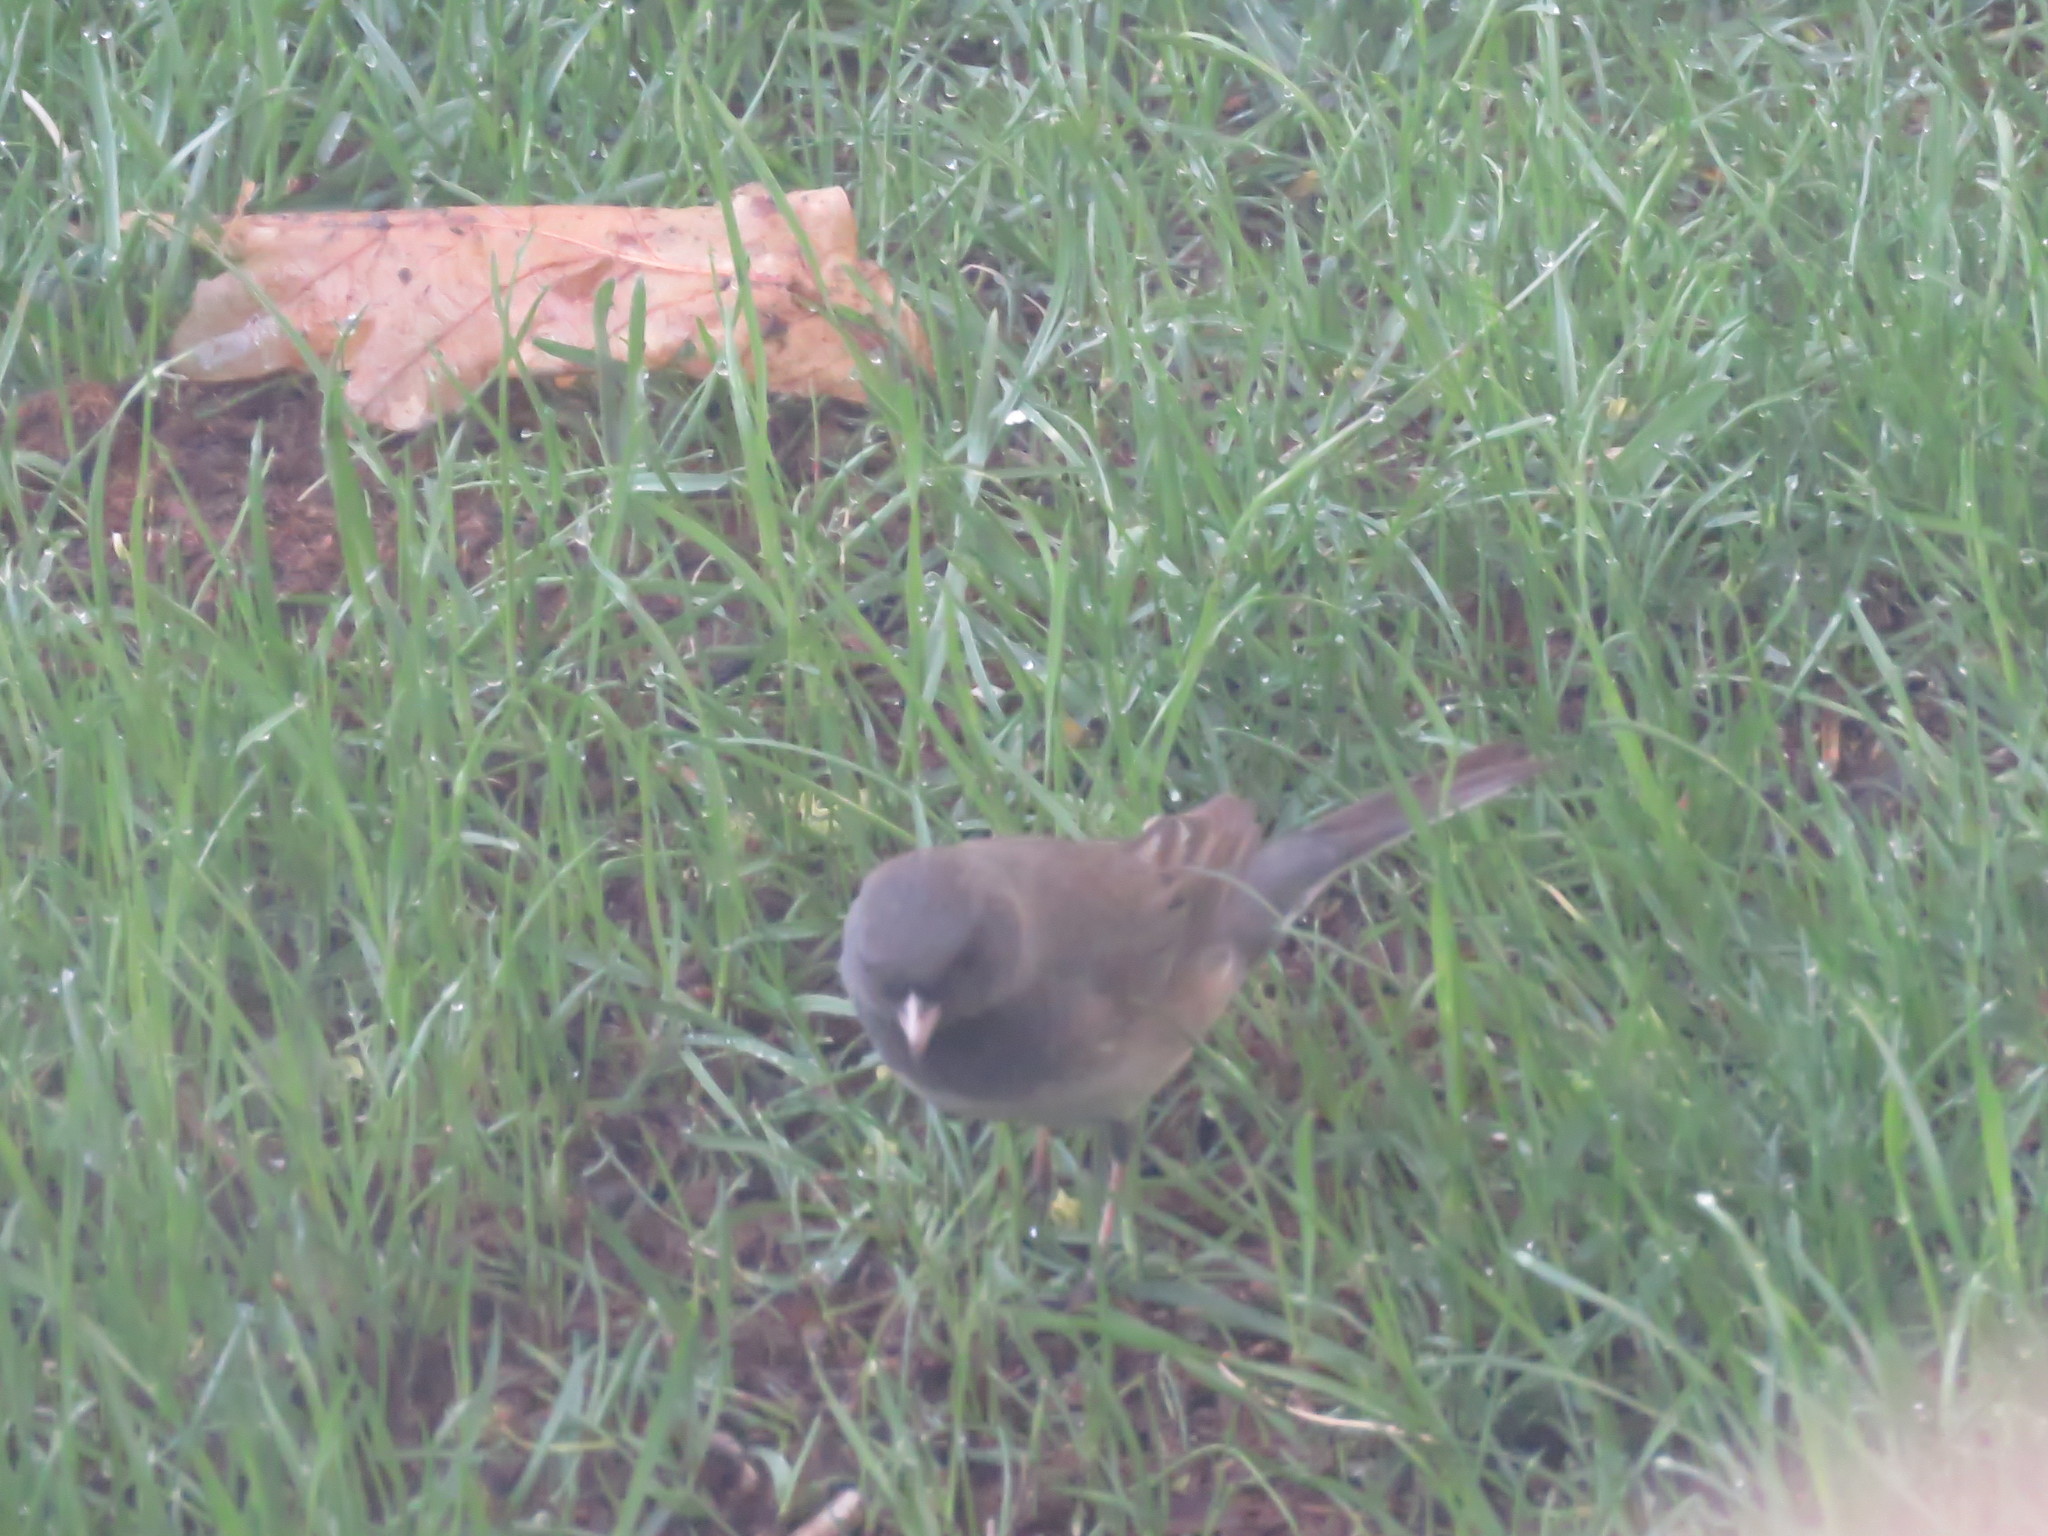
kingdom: Animalia
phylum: Chordata
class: Aves
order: Passeriformes
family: Passerellidae
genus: Junco
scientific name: Junco hyemalis
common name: Dark-eyed junco
